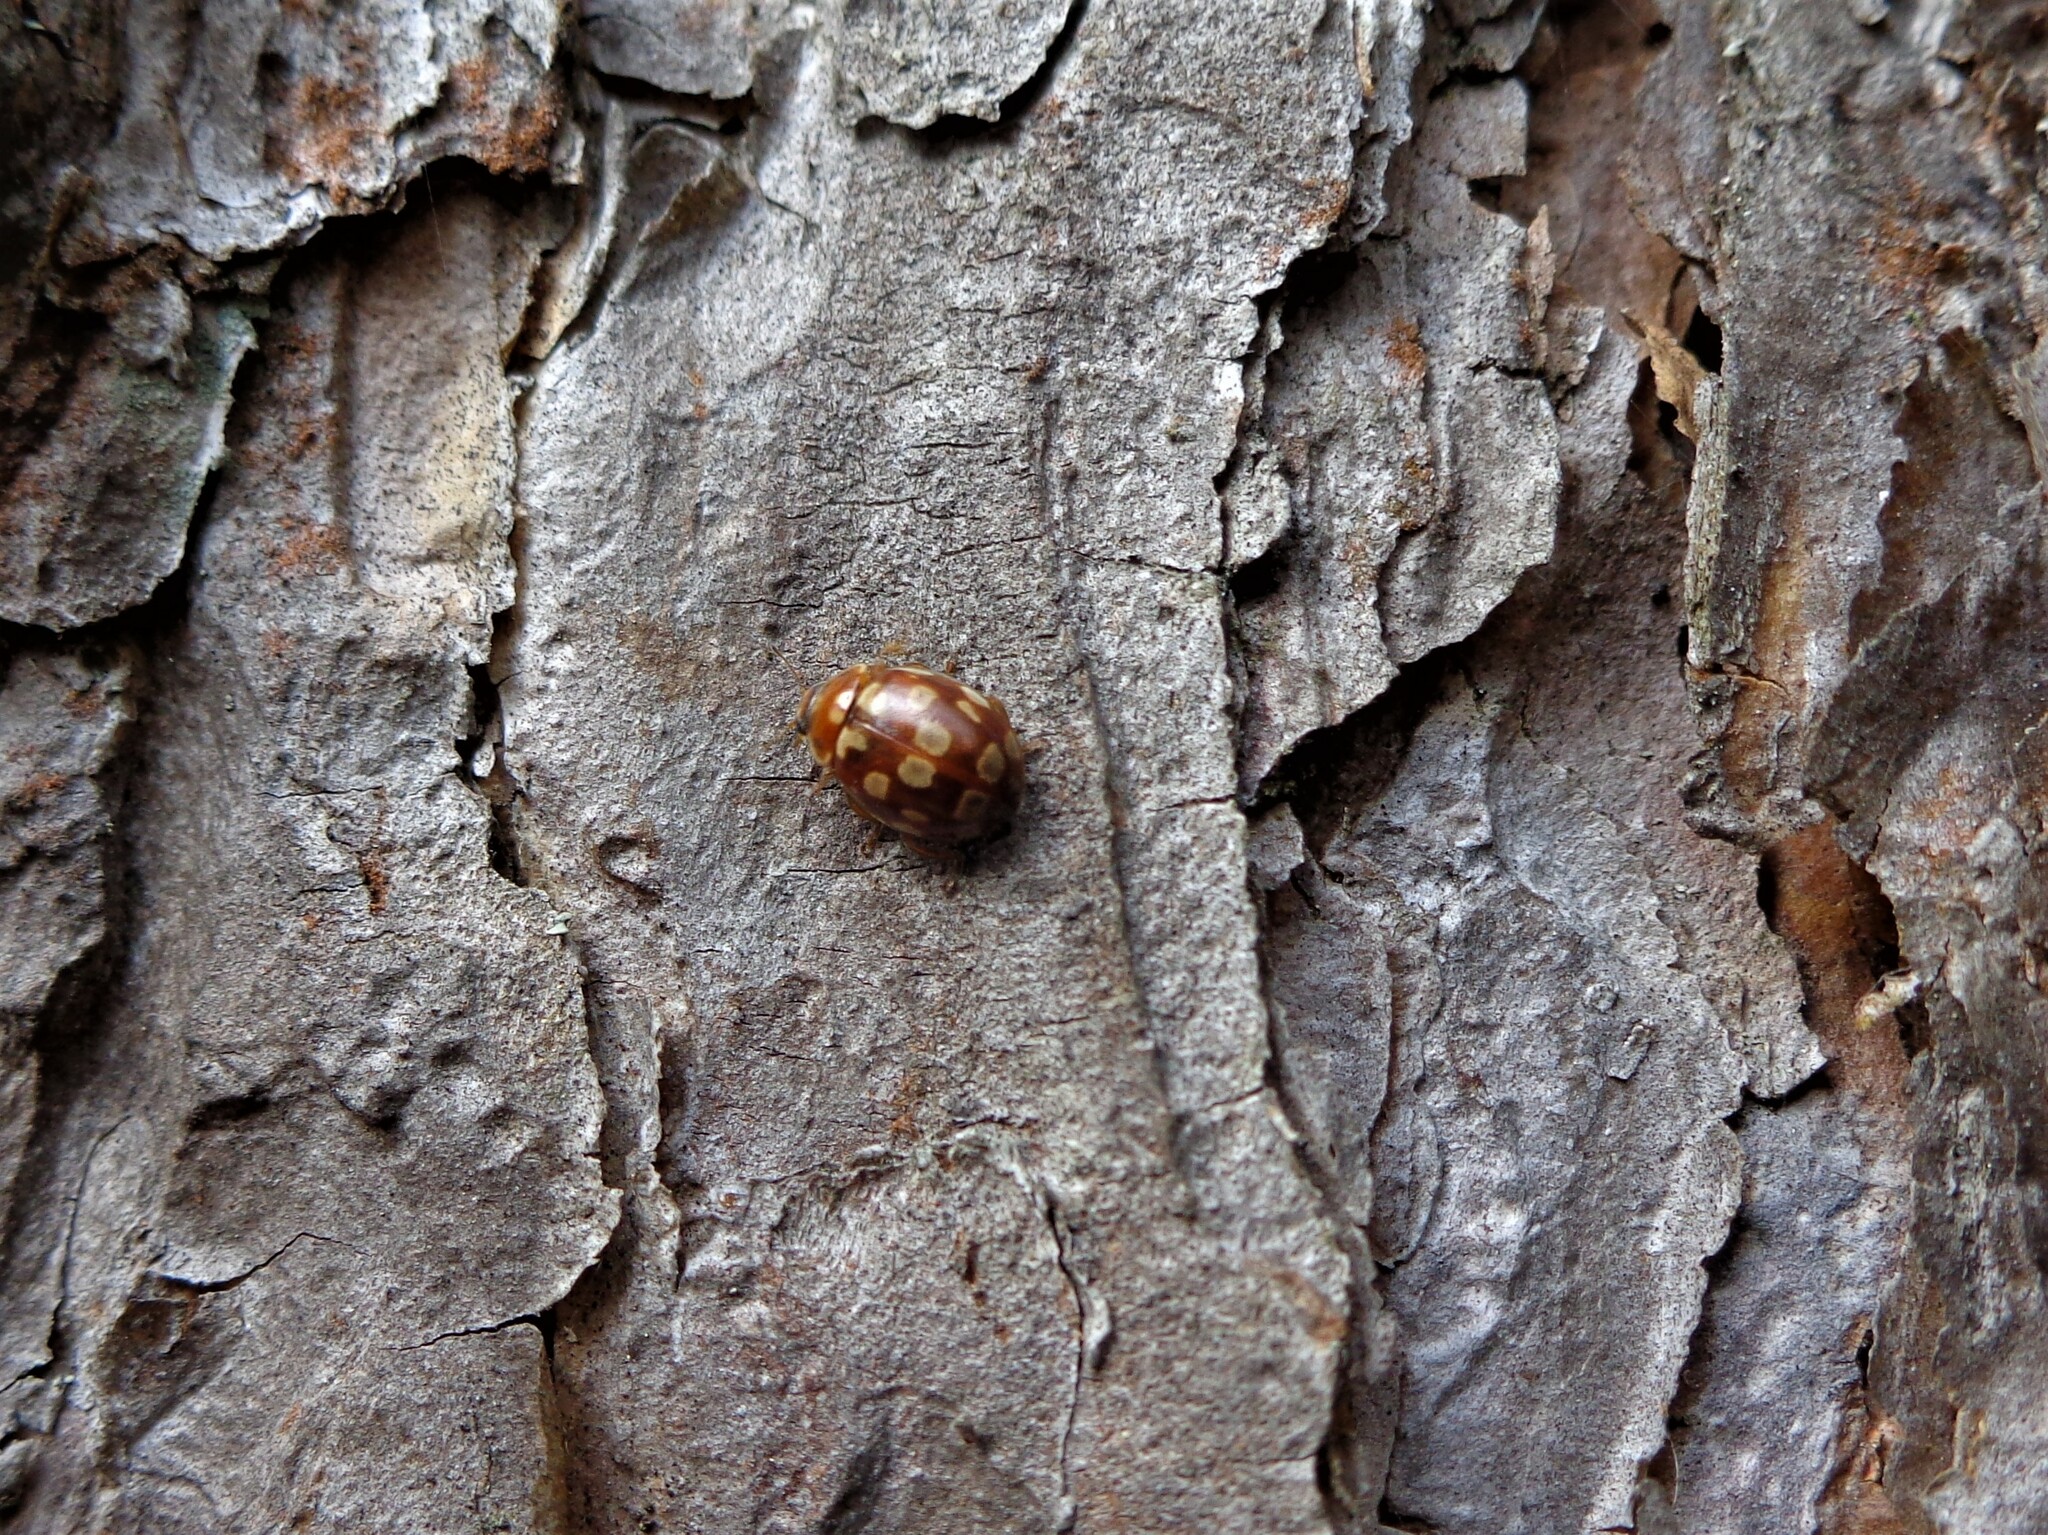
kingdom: Animalia
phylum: Arthropoda
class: Insecta
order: Coleoptera
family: Coccinellidae
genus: Myrrha
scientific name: Myrrha octodecimguttata
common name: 18-spot ladybird
